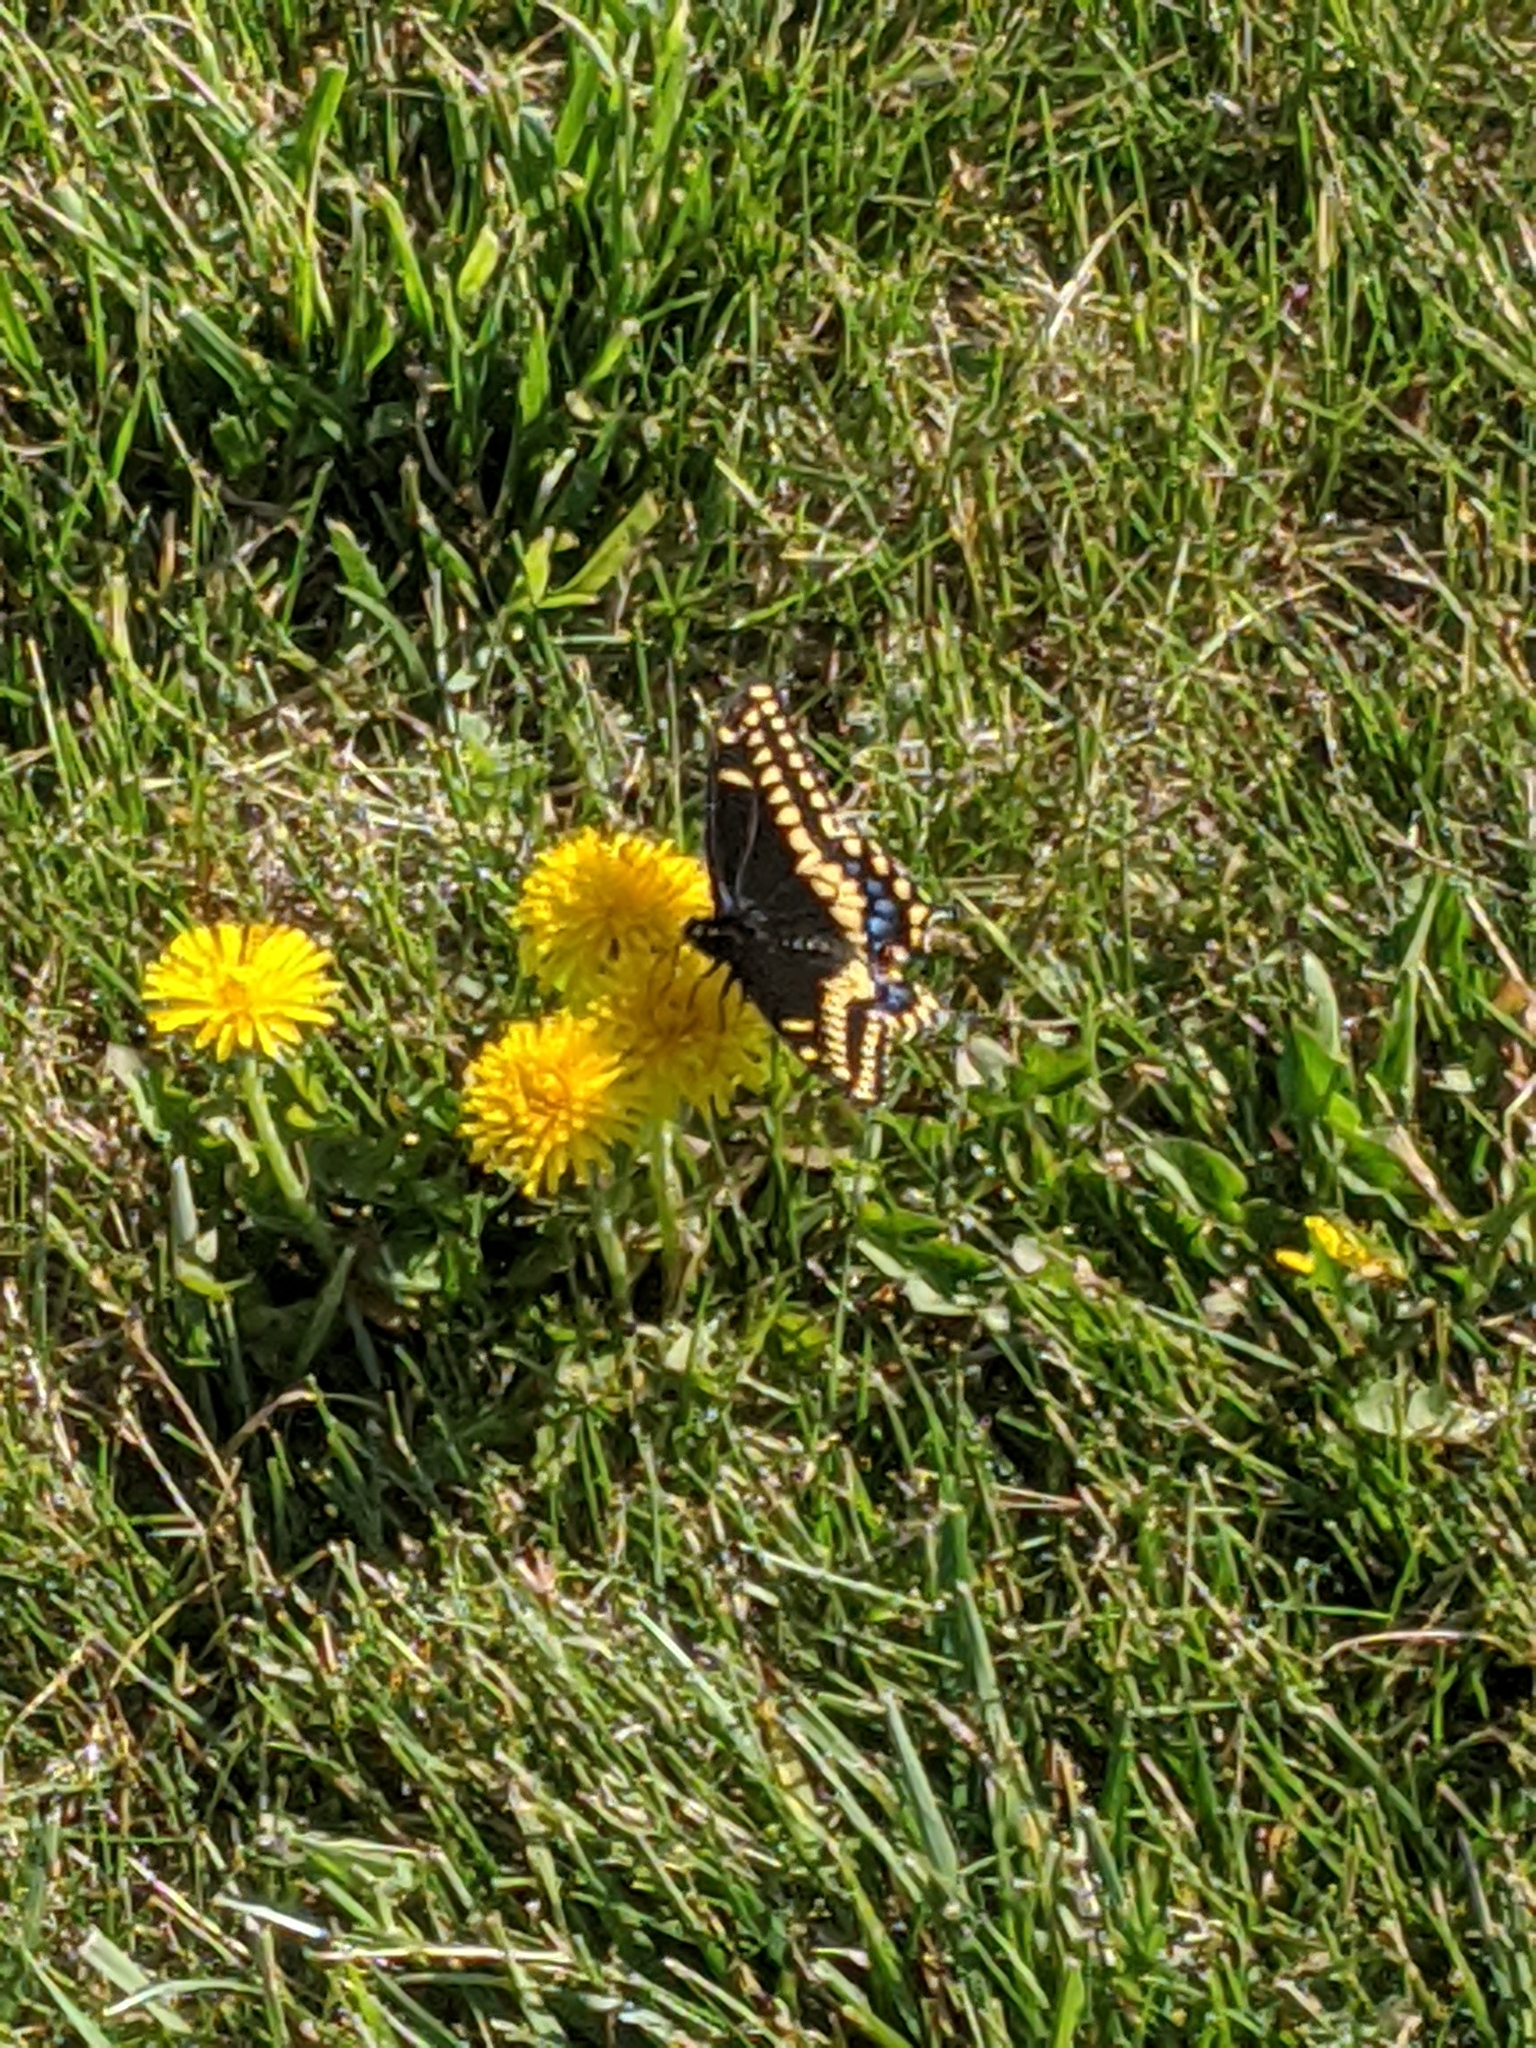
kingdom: Animalia
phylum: Arthropoda
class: Insecta
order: Lepidoptera
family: Papilionidae
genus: Papilio
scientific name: Papilio polyxenes
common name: Black swallowtail
